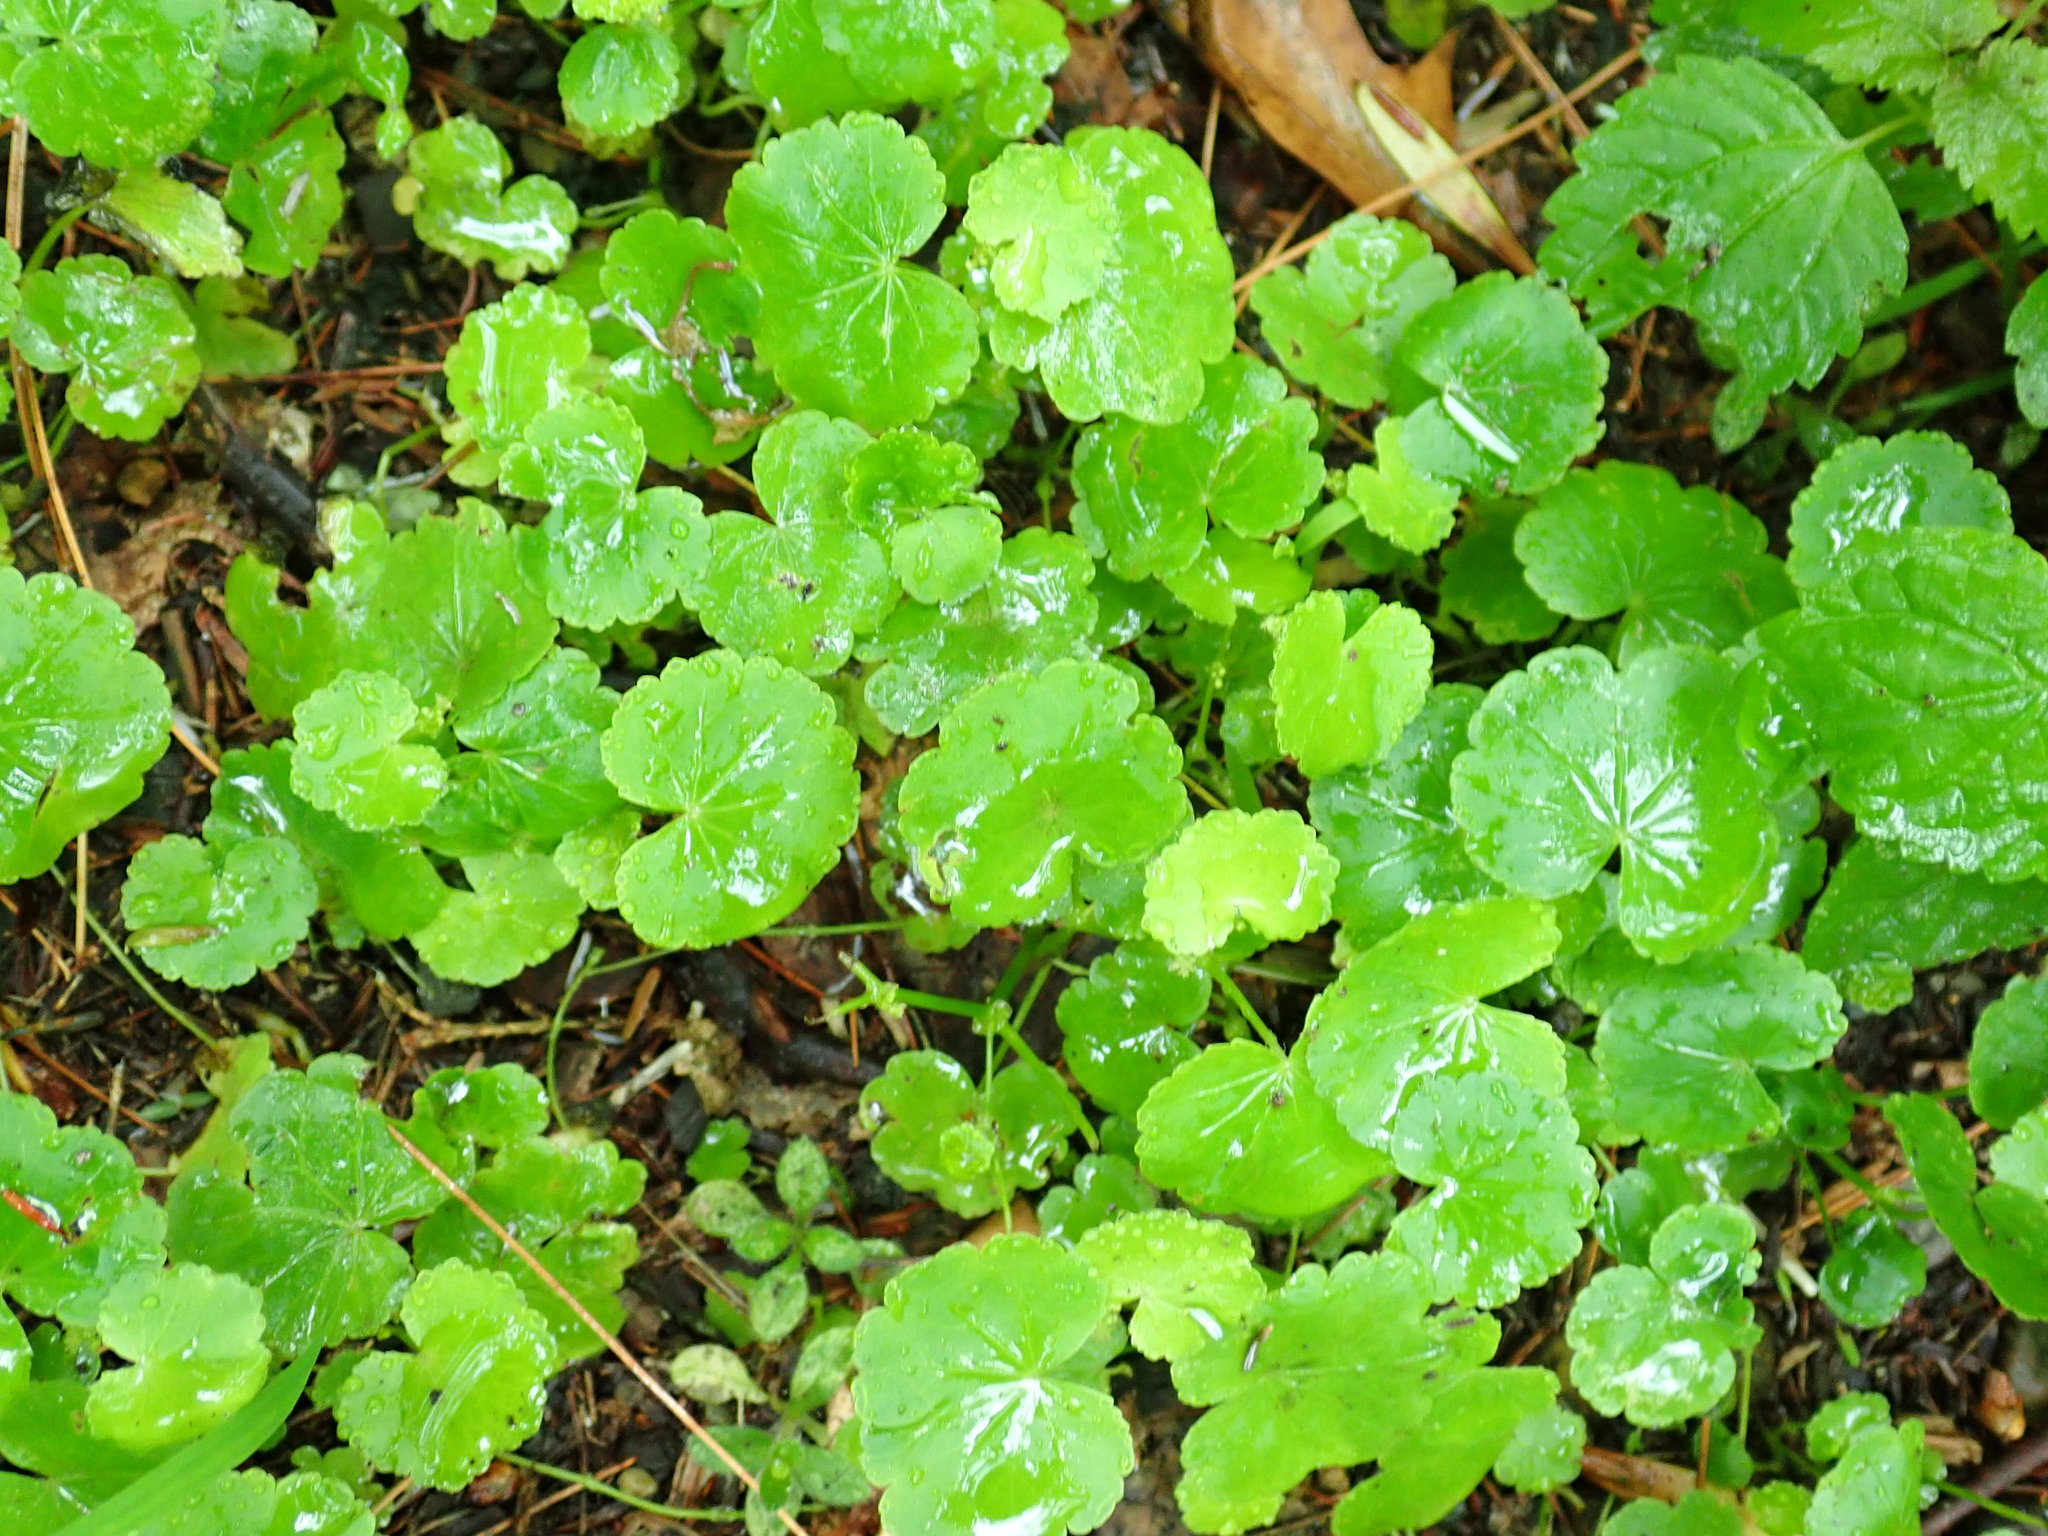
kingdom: Plantae
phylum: Tracheophyta
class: Magnoliopsida
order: Apiales
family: Araliaceae
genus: Hydrocotyle
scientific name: Hydrocotyle americana
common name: American water-pennywort
